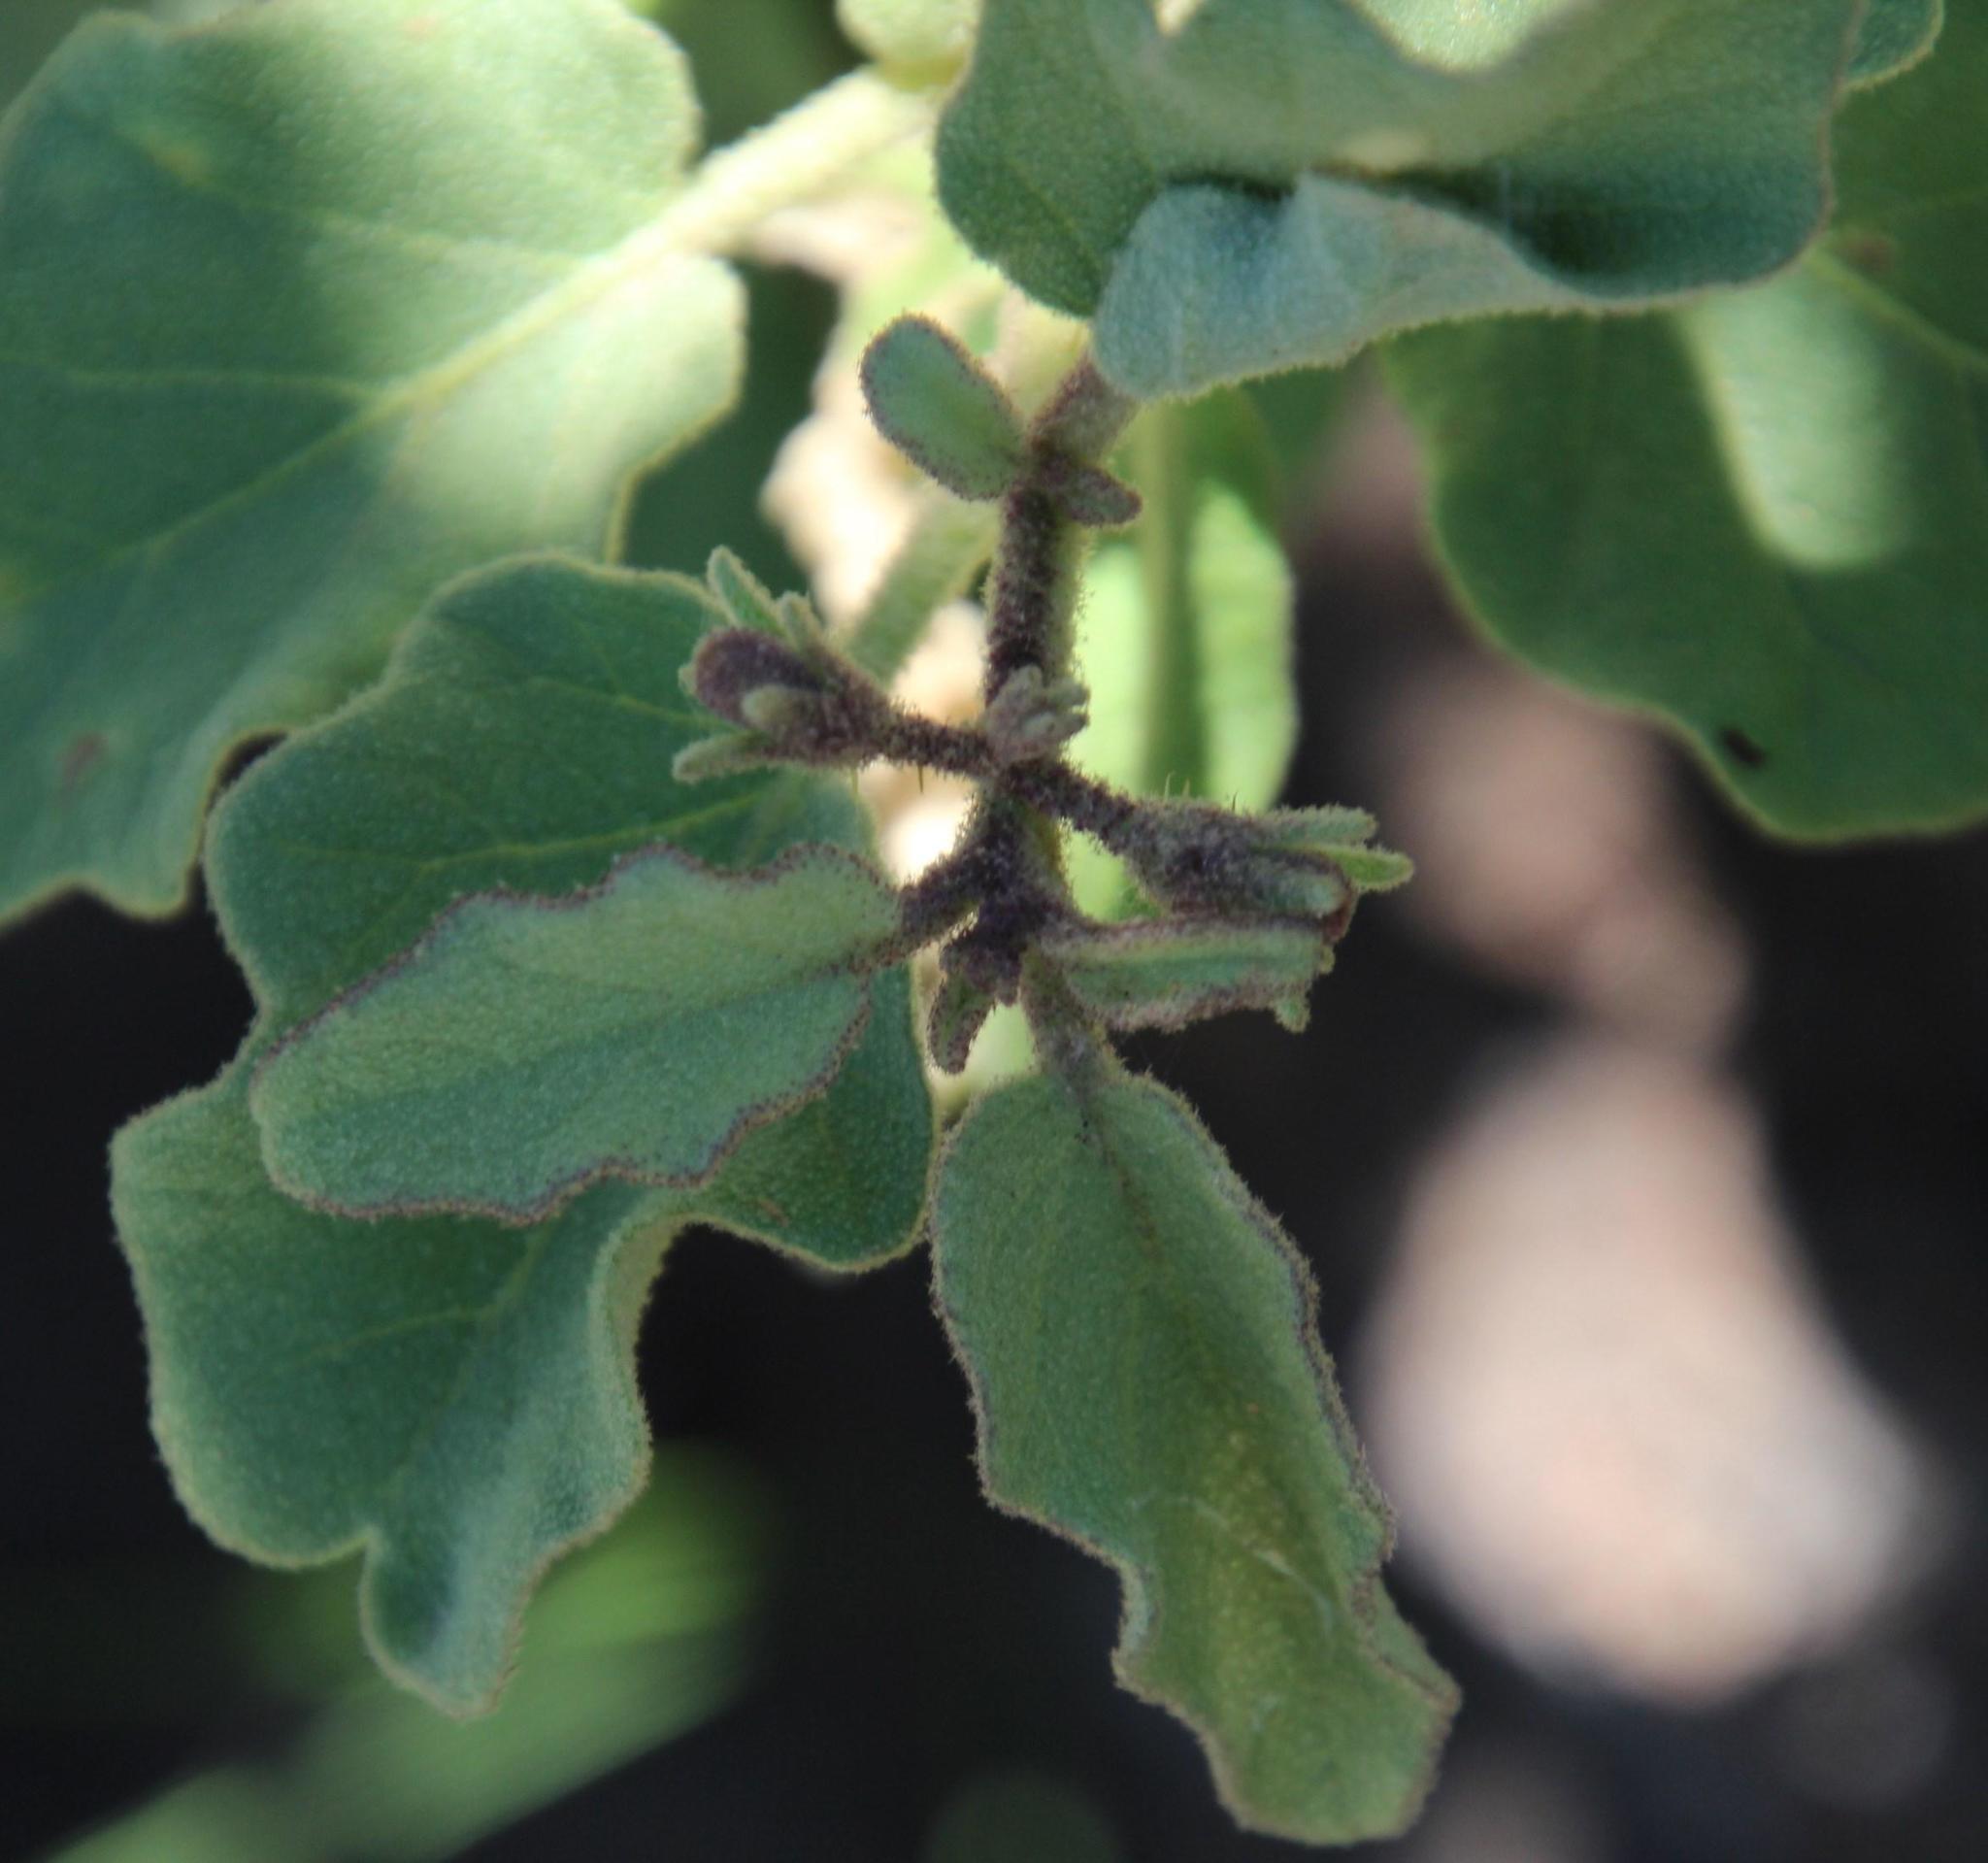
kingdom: Plantae
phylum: Tracheophyta
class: Magnoliopsida
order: Solanales
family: Solanaceae
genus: Solanum
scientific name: Solanum tomentosum
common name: Wild aubergine
